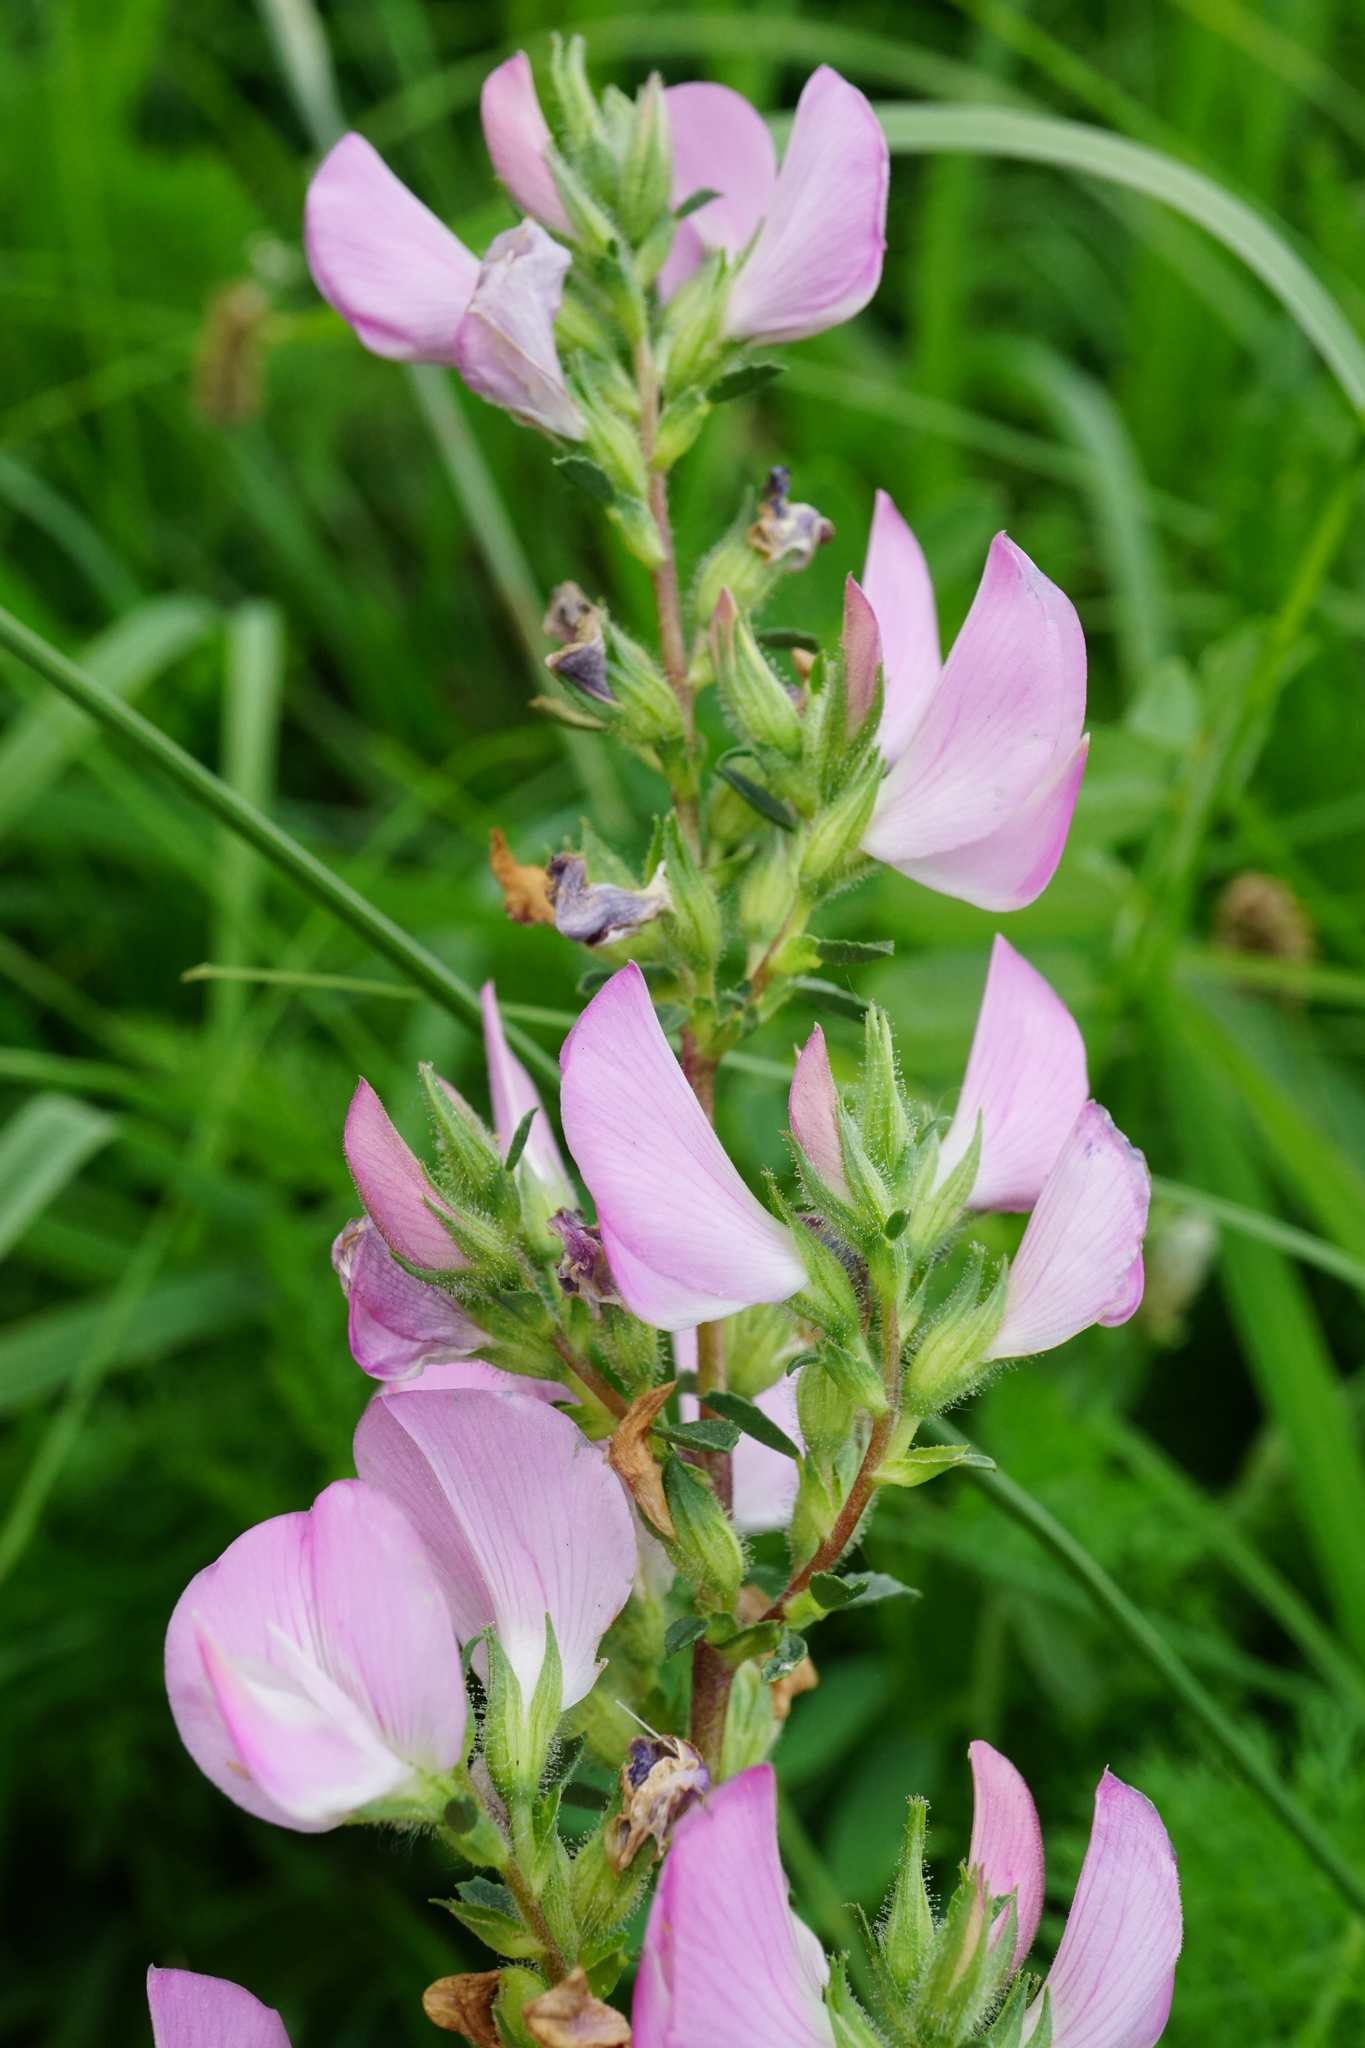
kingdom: Plantae
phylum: Tracheophyta
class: Magnoliopsida
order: Fabales
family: Fabaceae
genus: Ononis
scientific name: Ononis spinosa
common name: Spiny restharrow
